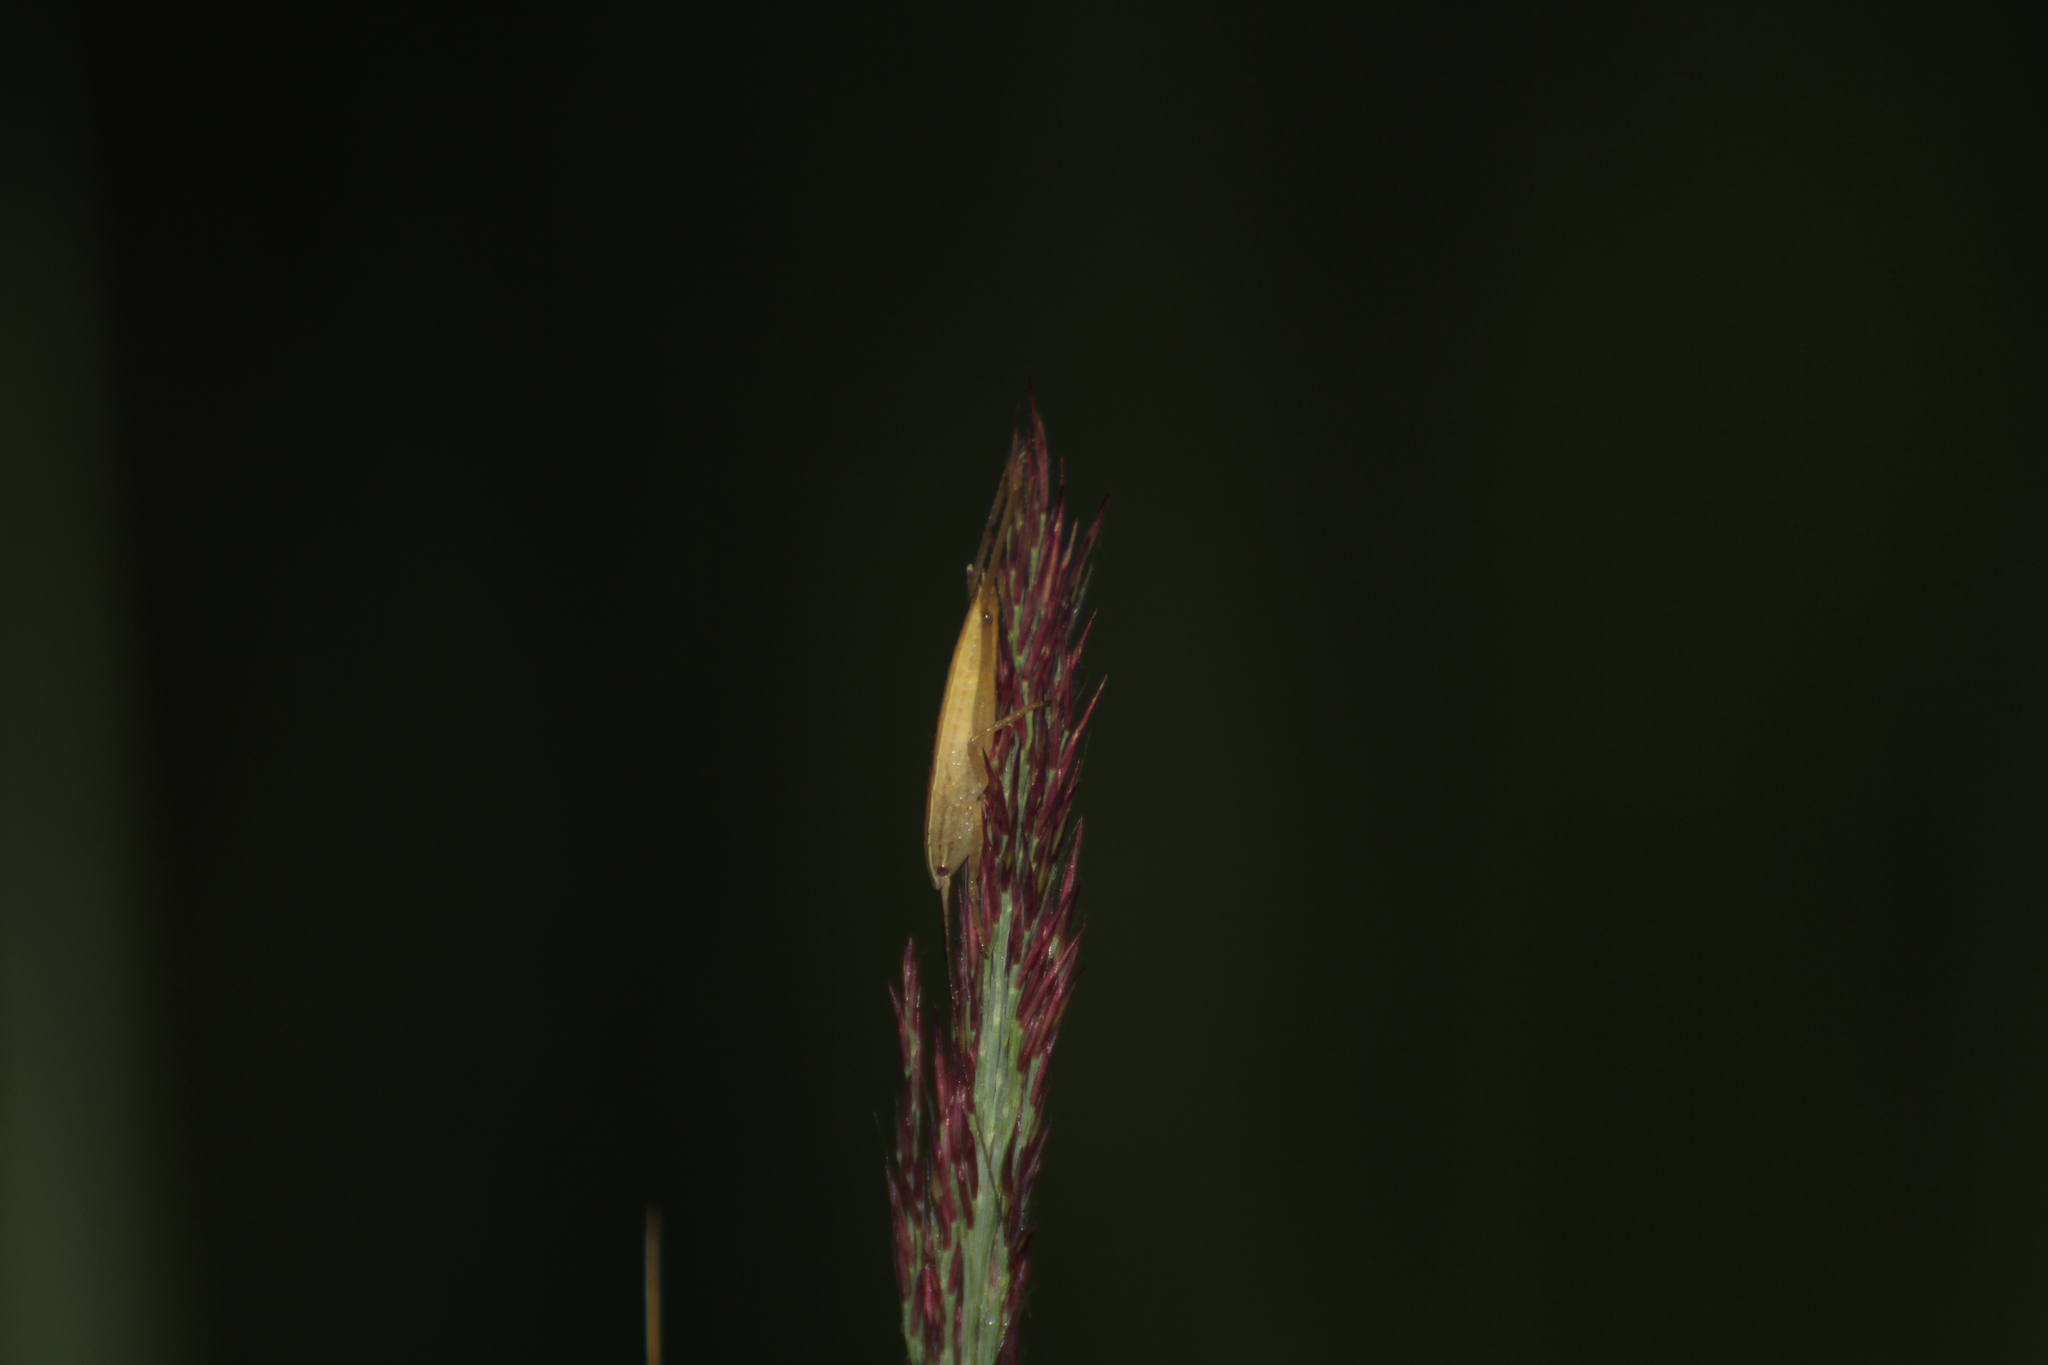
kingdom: Animalia
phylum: Arthropoda
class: Insecta
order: Orthoptera
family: Tettigoniidae
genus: Ruspolia
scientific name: Ruspolia nitidula
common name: Large conehead
